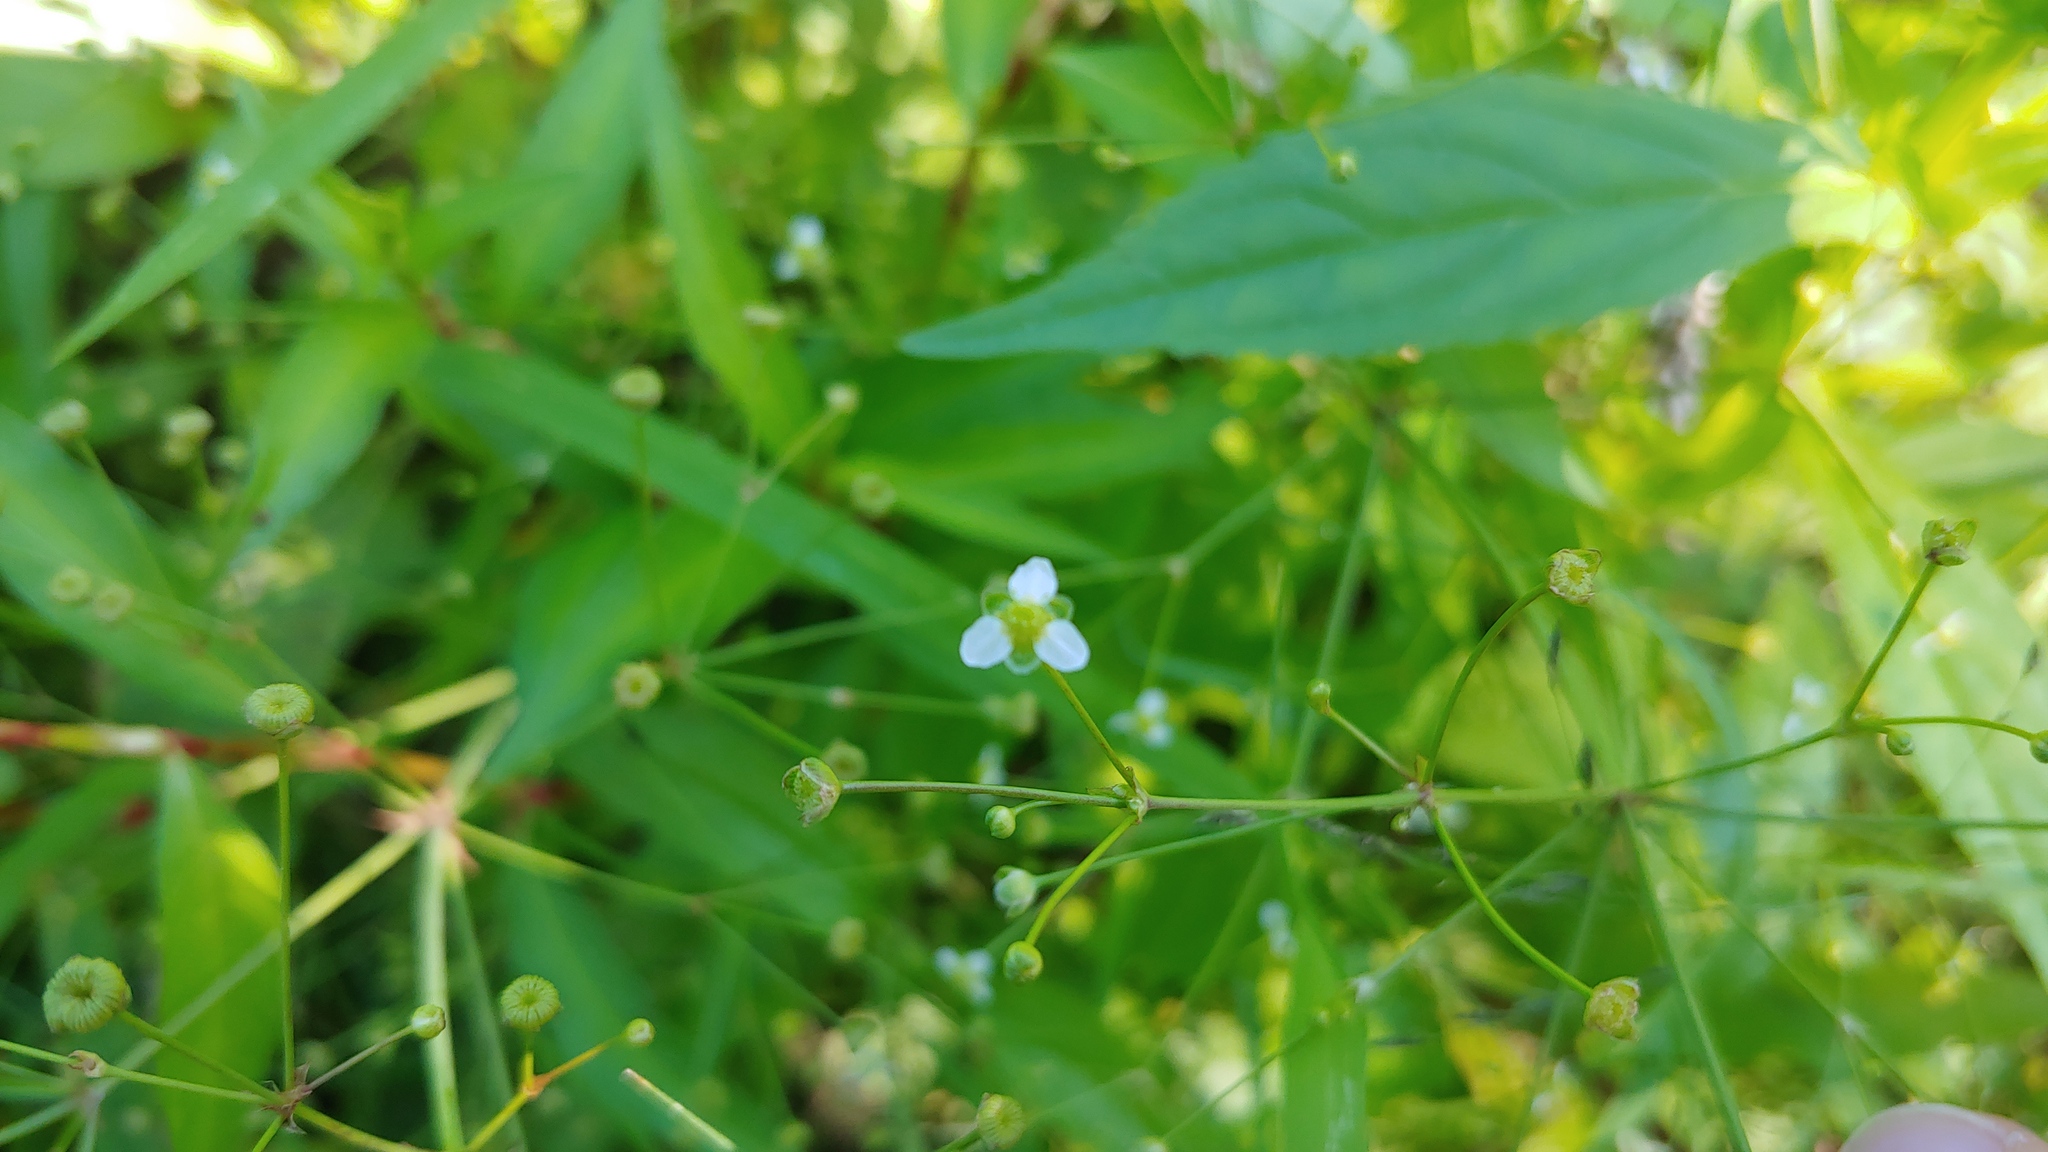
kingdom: Plantae
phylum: Tracheophyta
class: Liliopsida
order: Alismatales
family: Alismataceae
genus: Alisma
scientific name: Alisma subcordatum
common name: Southern water-plantain
